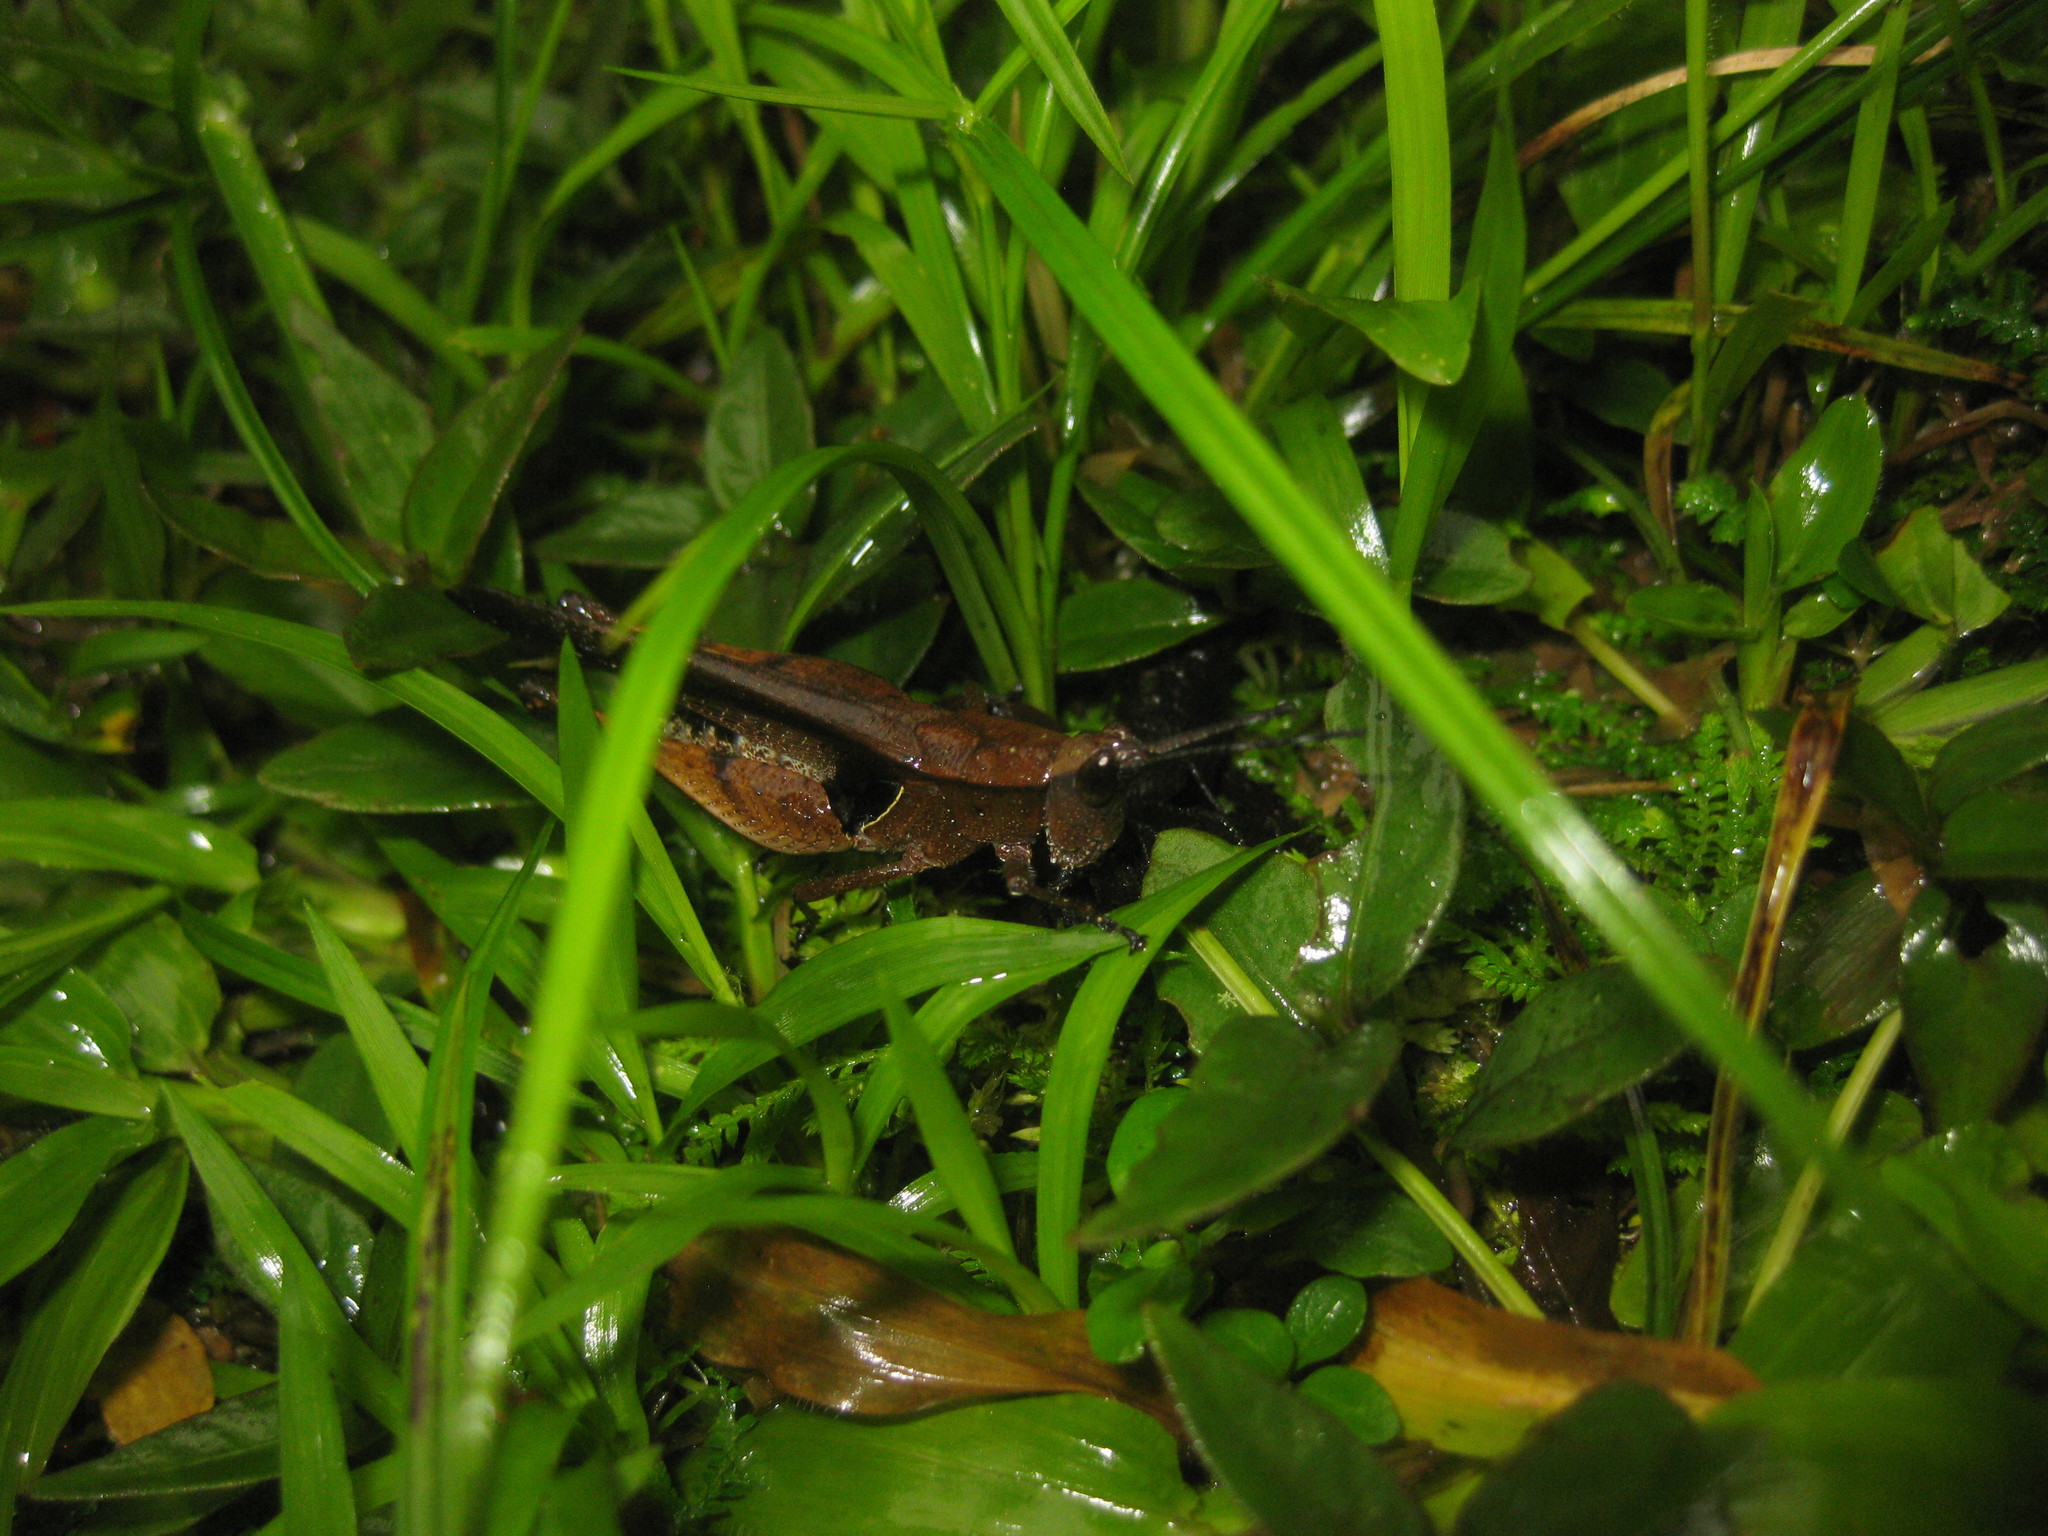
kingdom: Animalia
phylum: Arthropoda
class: Insecta
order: Orthoptera
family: Acrididae
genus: Xiphiola
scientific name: Xiphiola cyanoptera
